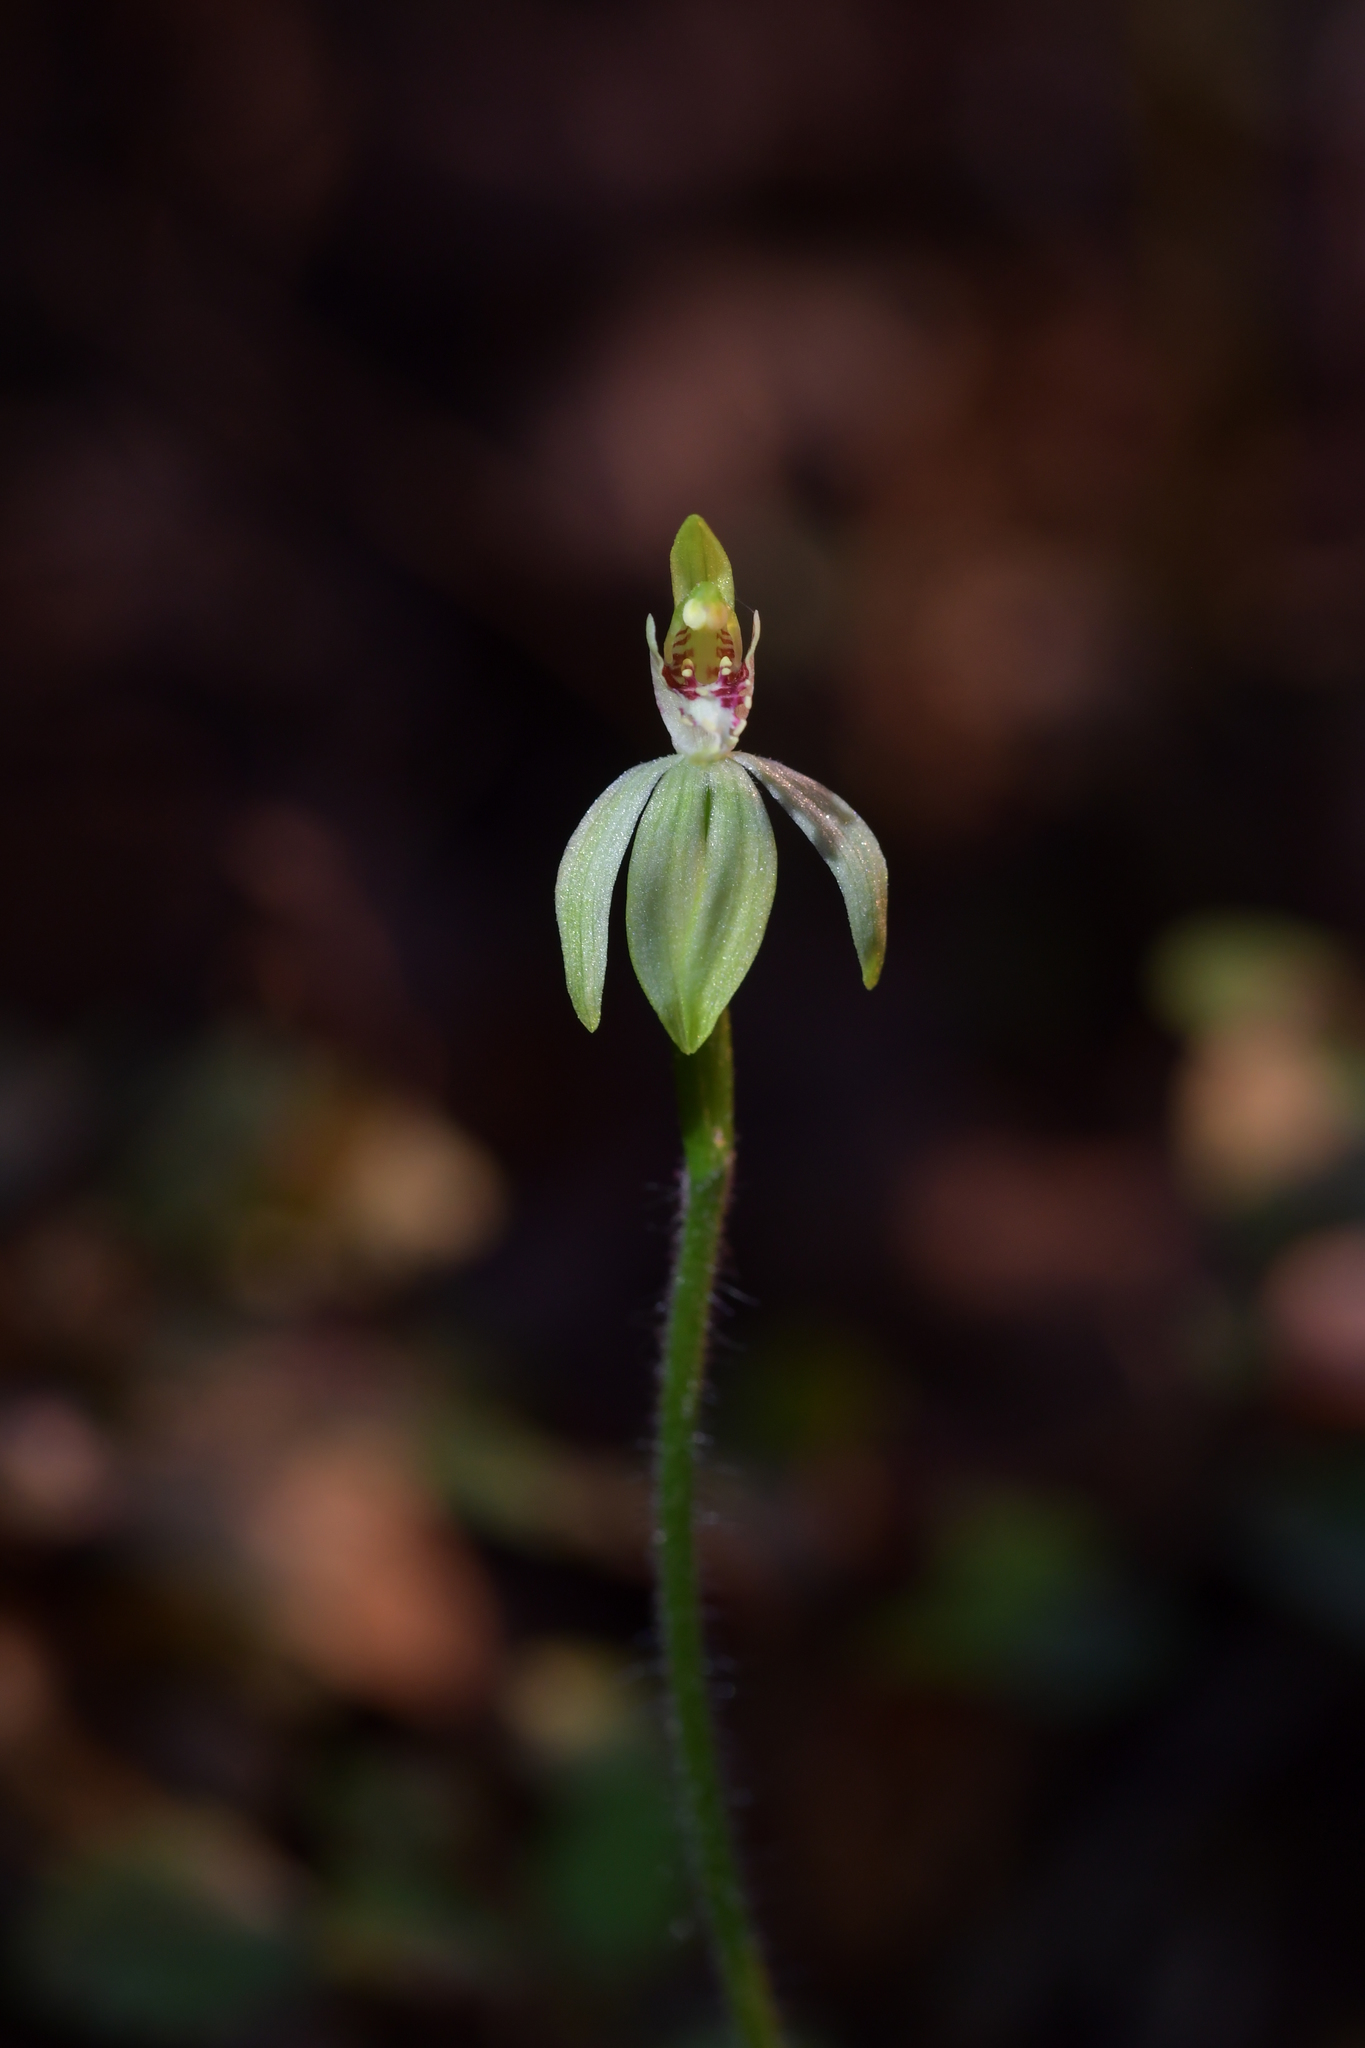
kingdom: Plantae
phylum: Tracheophyta
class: Liliopsida
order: Asparagales
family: Orchidaceae
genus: Caladenia
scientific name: Caladenia chlorostyla
